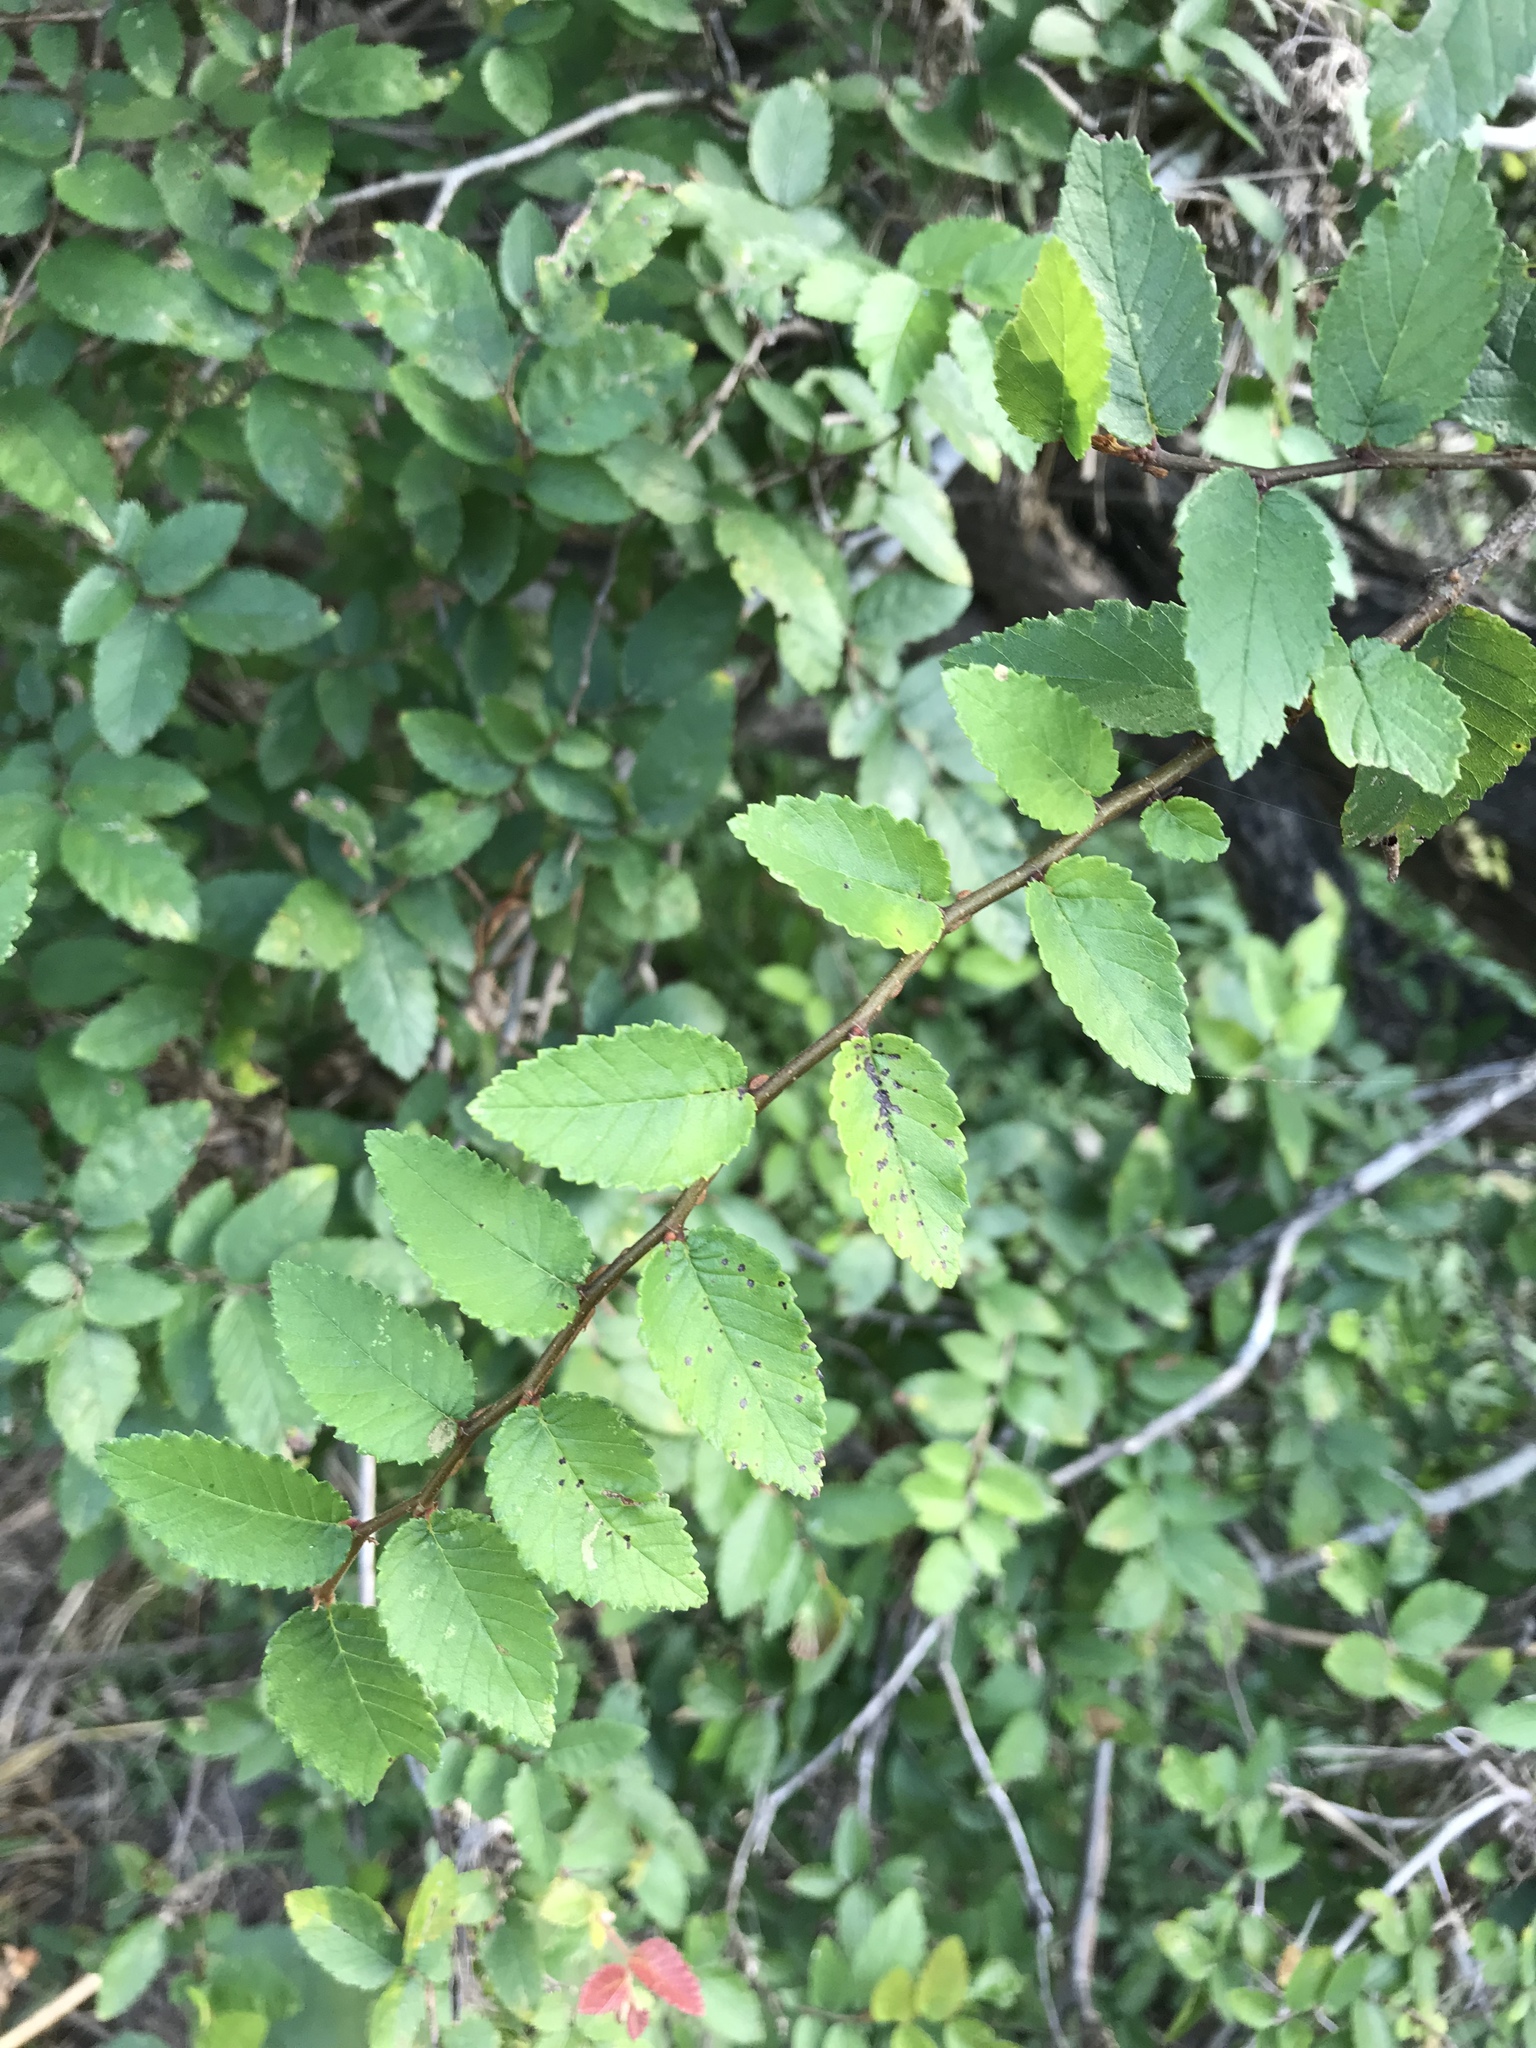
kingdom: Plantae
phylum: Tracheophyta
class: Magnoliopsida
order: Rosales
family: Ulmaceae
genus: Ulmus
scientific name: Ulmus crassifolia
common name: Basket elm
